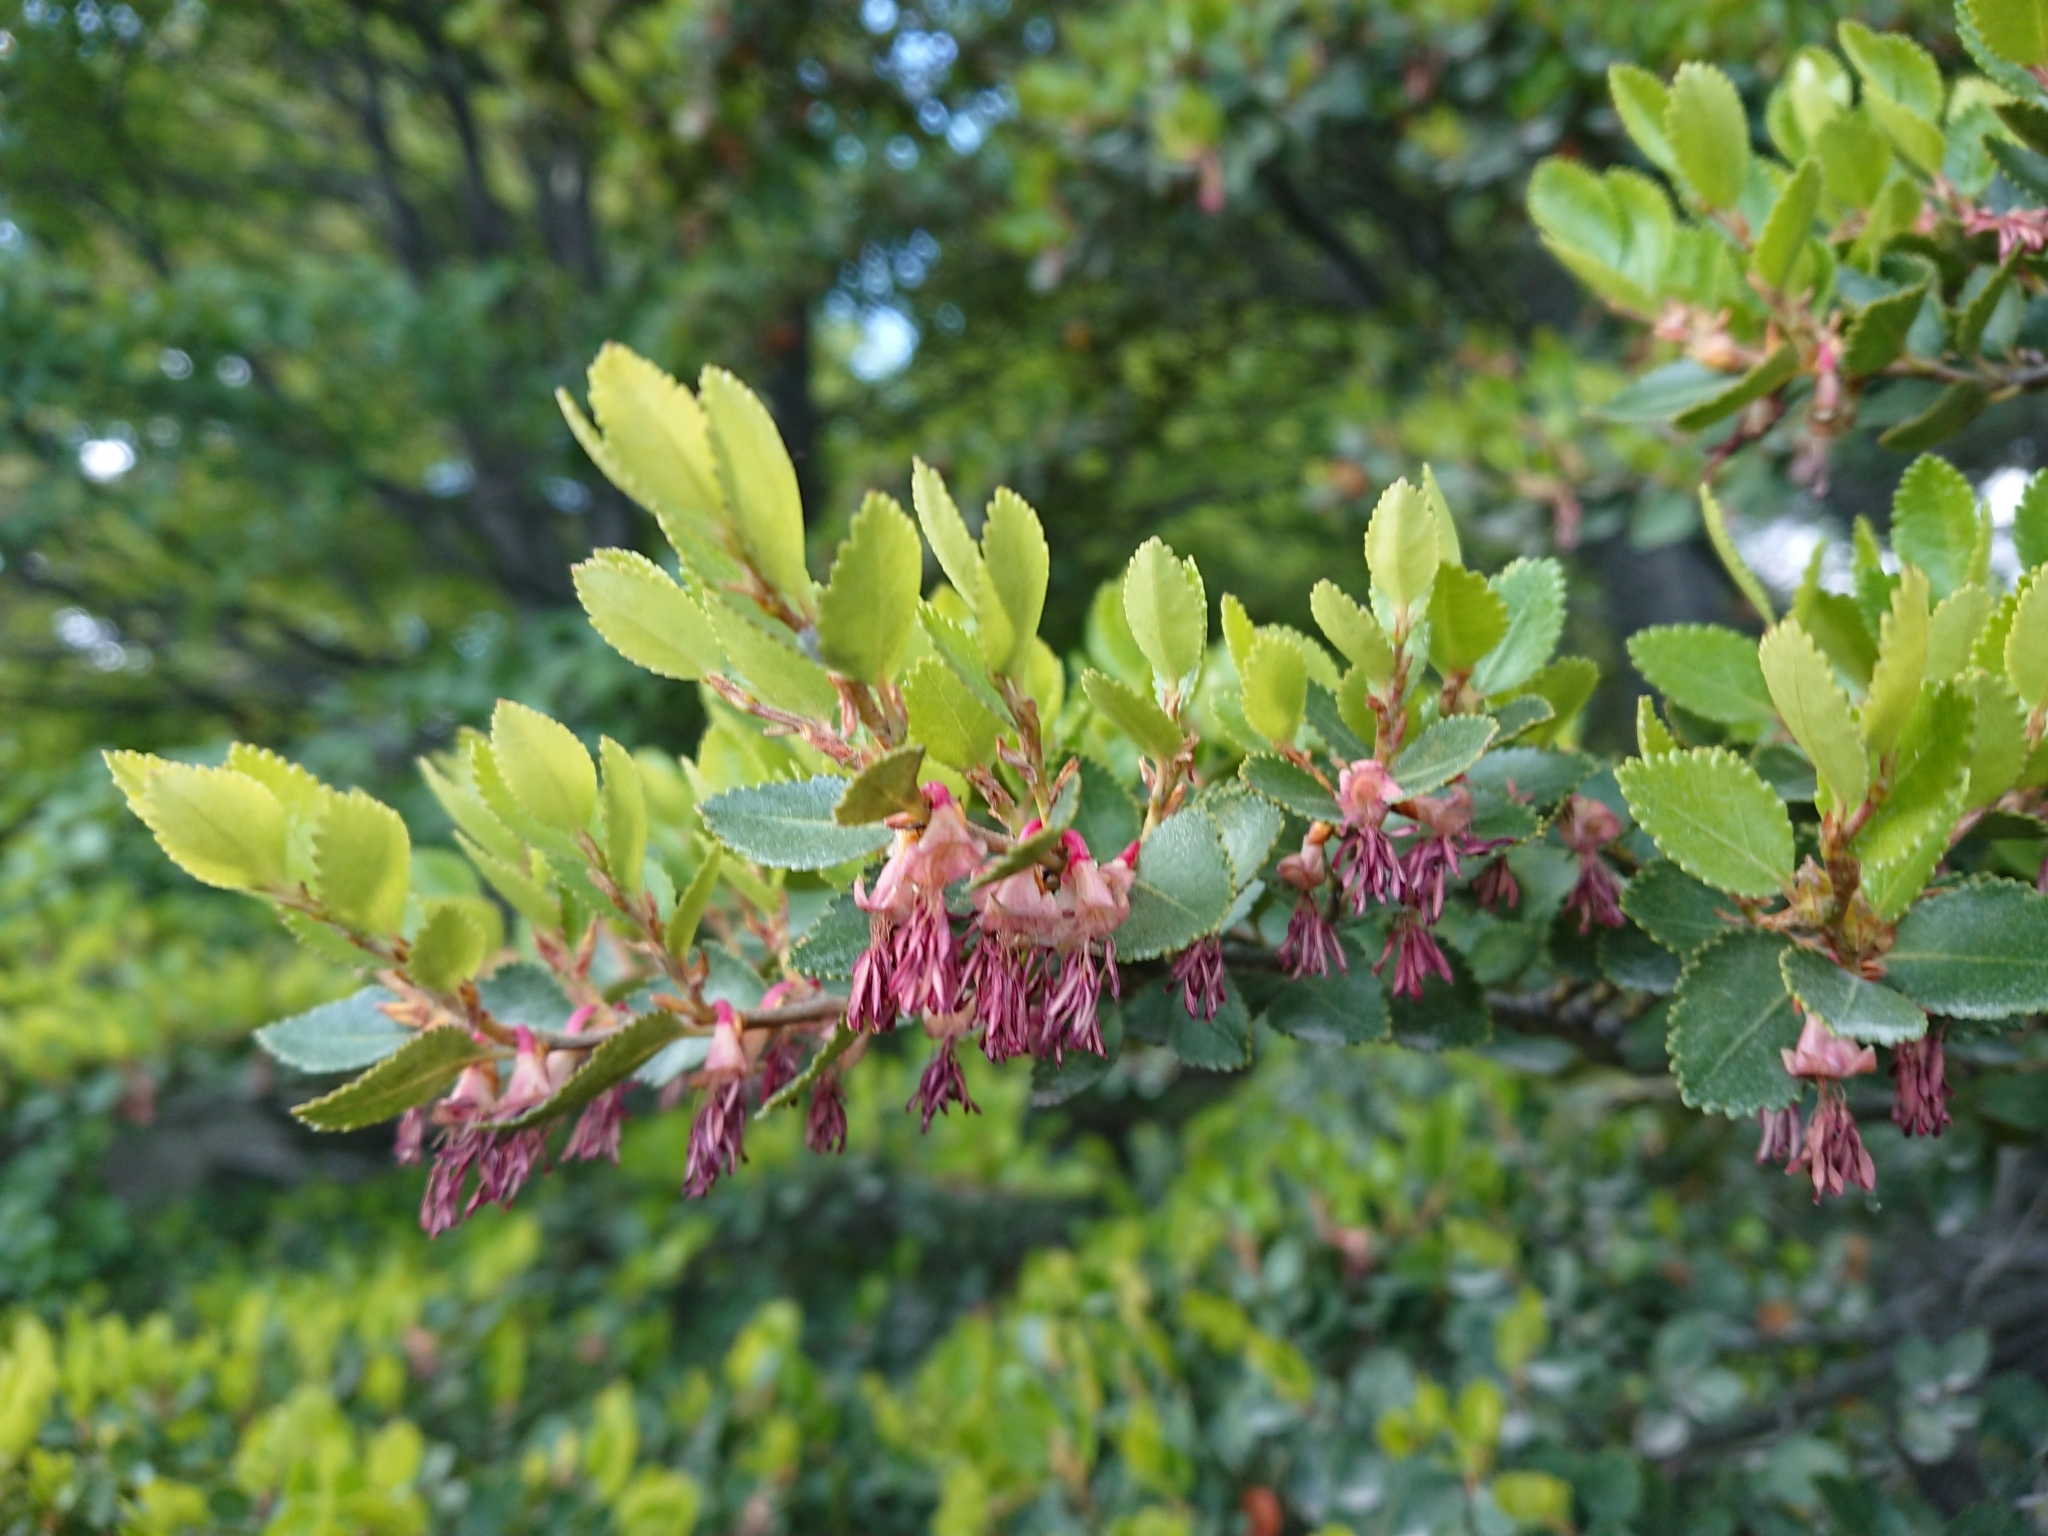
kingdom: Plantae
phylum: Tracheophyta
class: Magnoliopsida
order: Fagales
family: Nothofagaceae
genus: Nothofagus
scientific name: Nothofagus betuloides
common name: Magellan's beech
